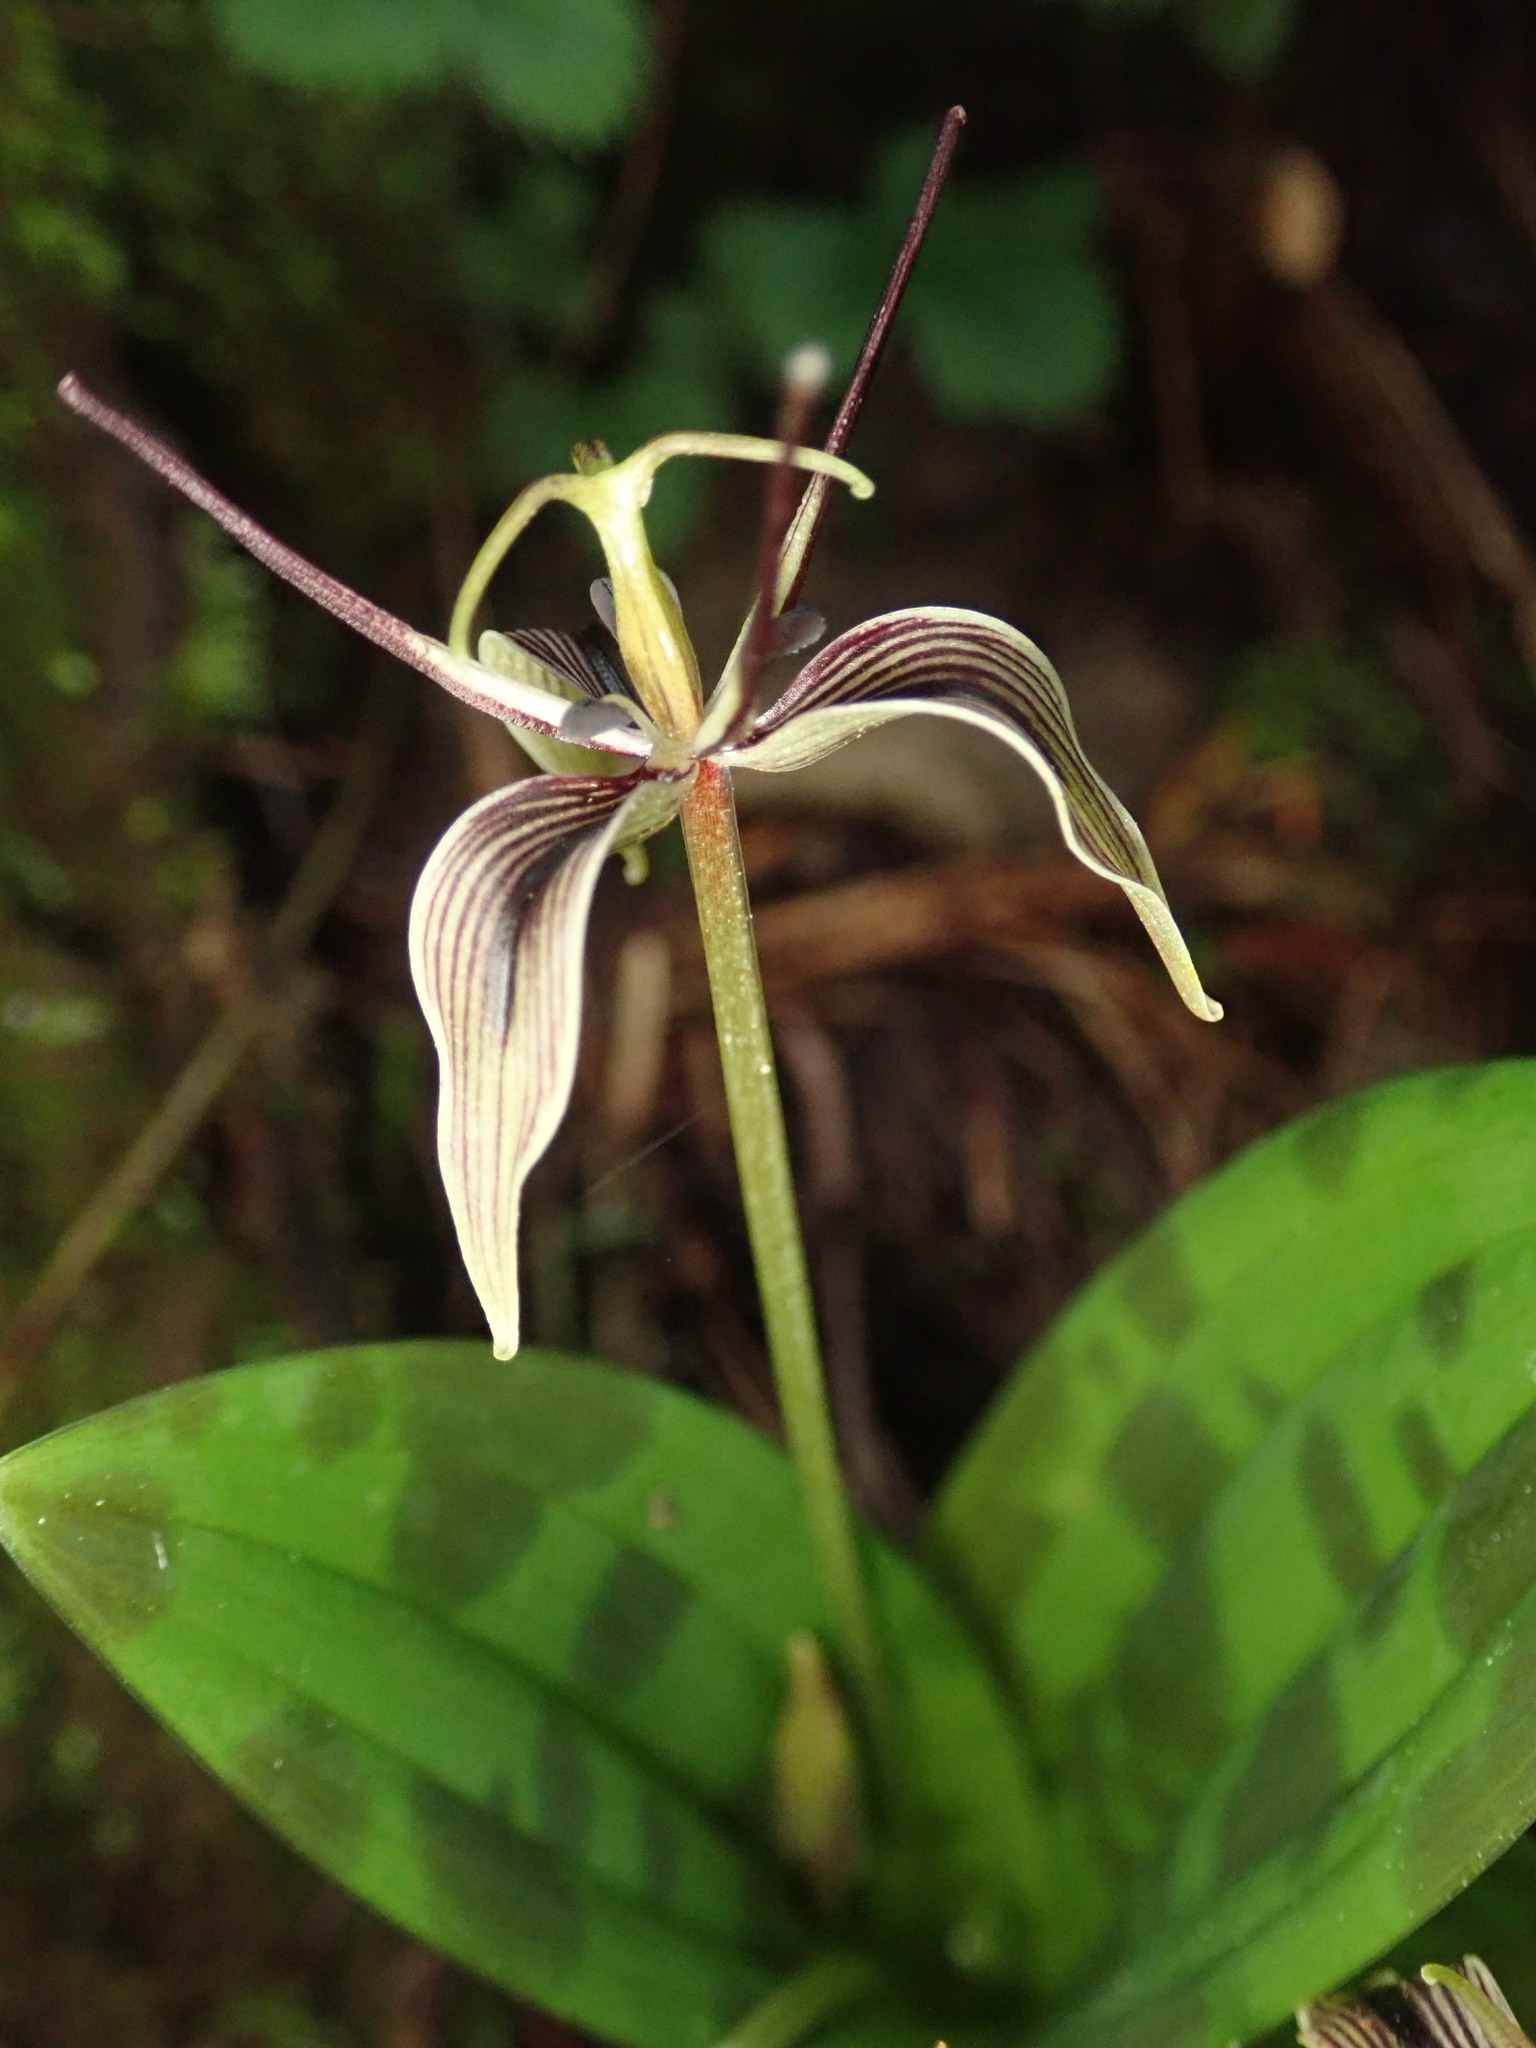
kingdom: Plantae
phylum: Tracheophyta
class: Liliopsida
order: Liliales
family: Liliaceae
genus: Scoliopus
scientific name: Scoliopus bigelovii
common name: Foetid adder's-tongue
